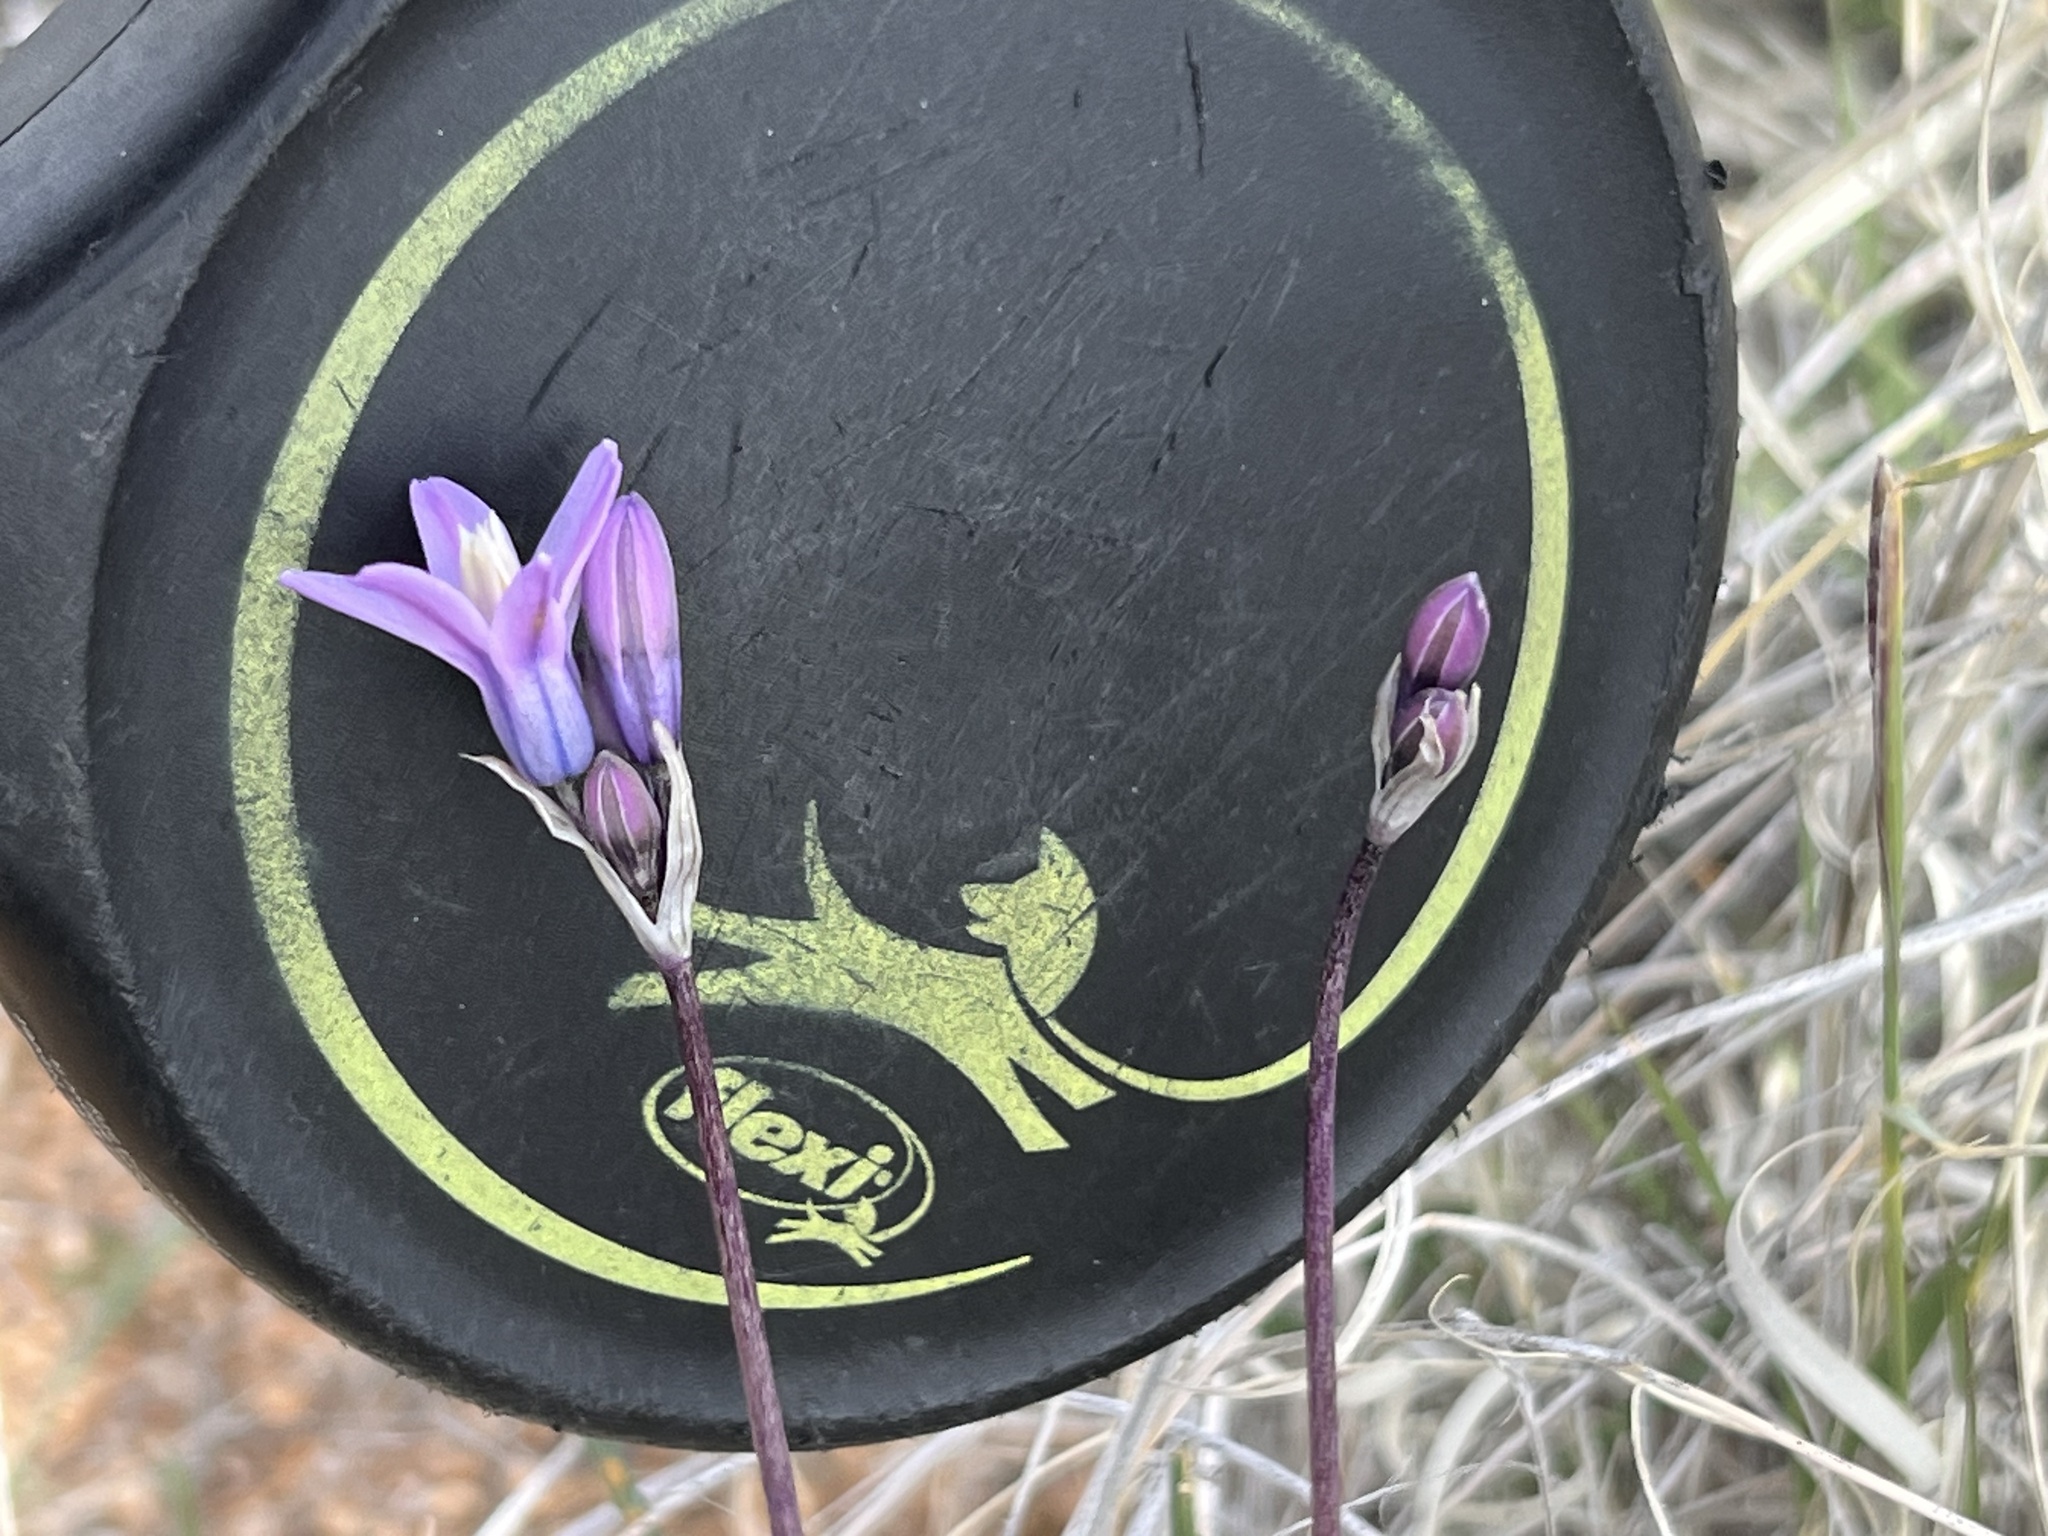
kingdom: Plantae
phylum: Tracheophyta
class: Liliopsida
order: Asparagales
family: Asparagaceae
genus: Dipterostemon
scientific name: Dipterostemon capitatus
